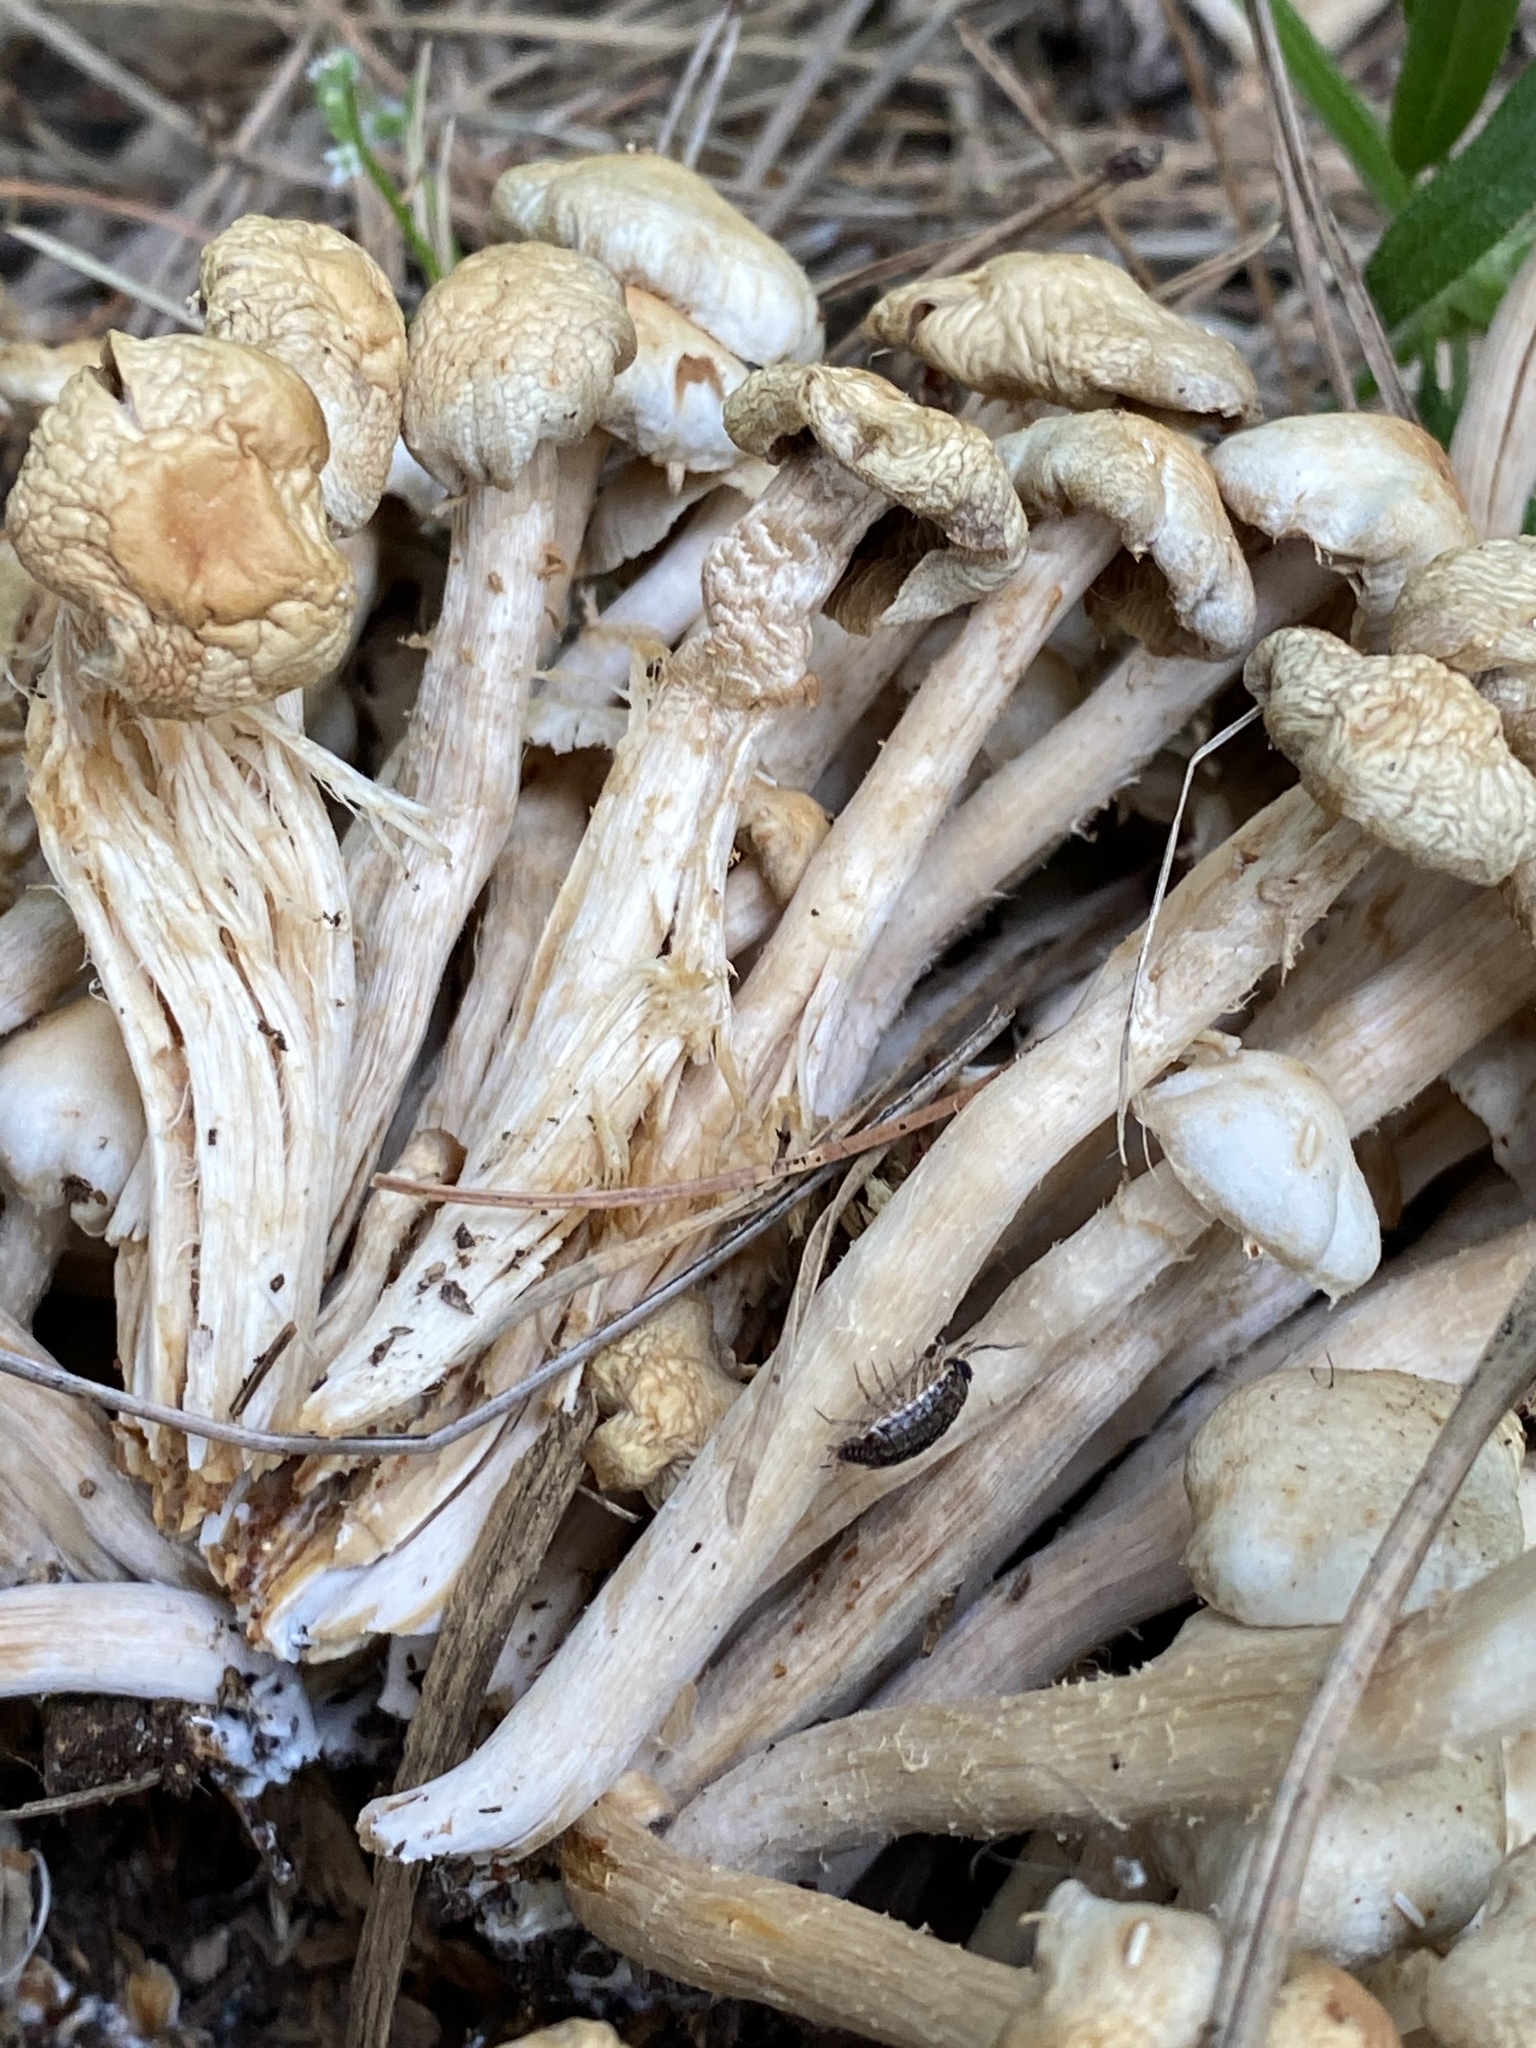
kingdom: Fungi
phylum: Basidiomycota
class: Agaricomycetes
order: Agaricales
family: Physalacriaceae
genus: Desarmillaria
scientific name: Desarmillaria caespitosa
